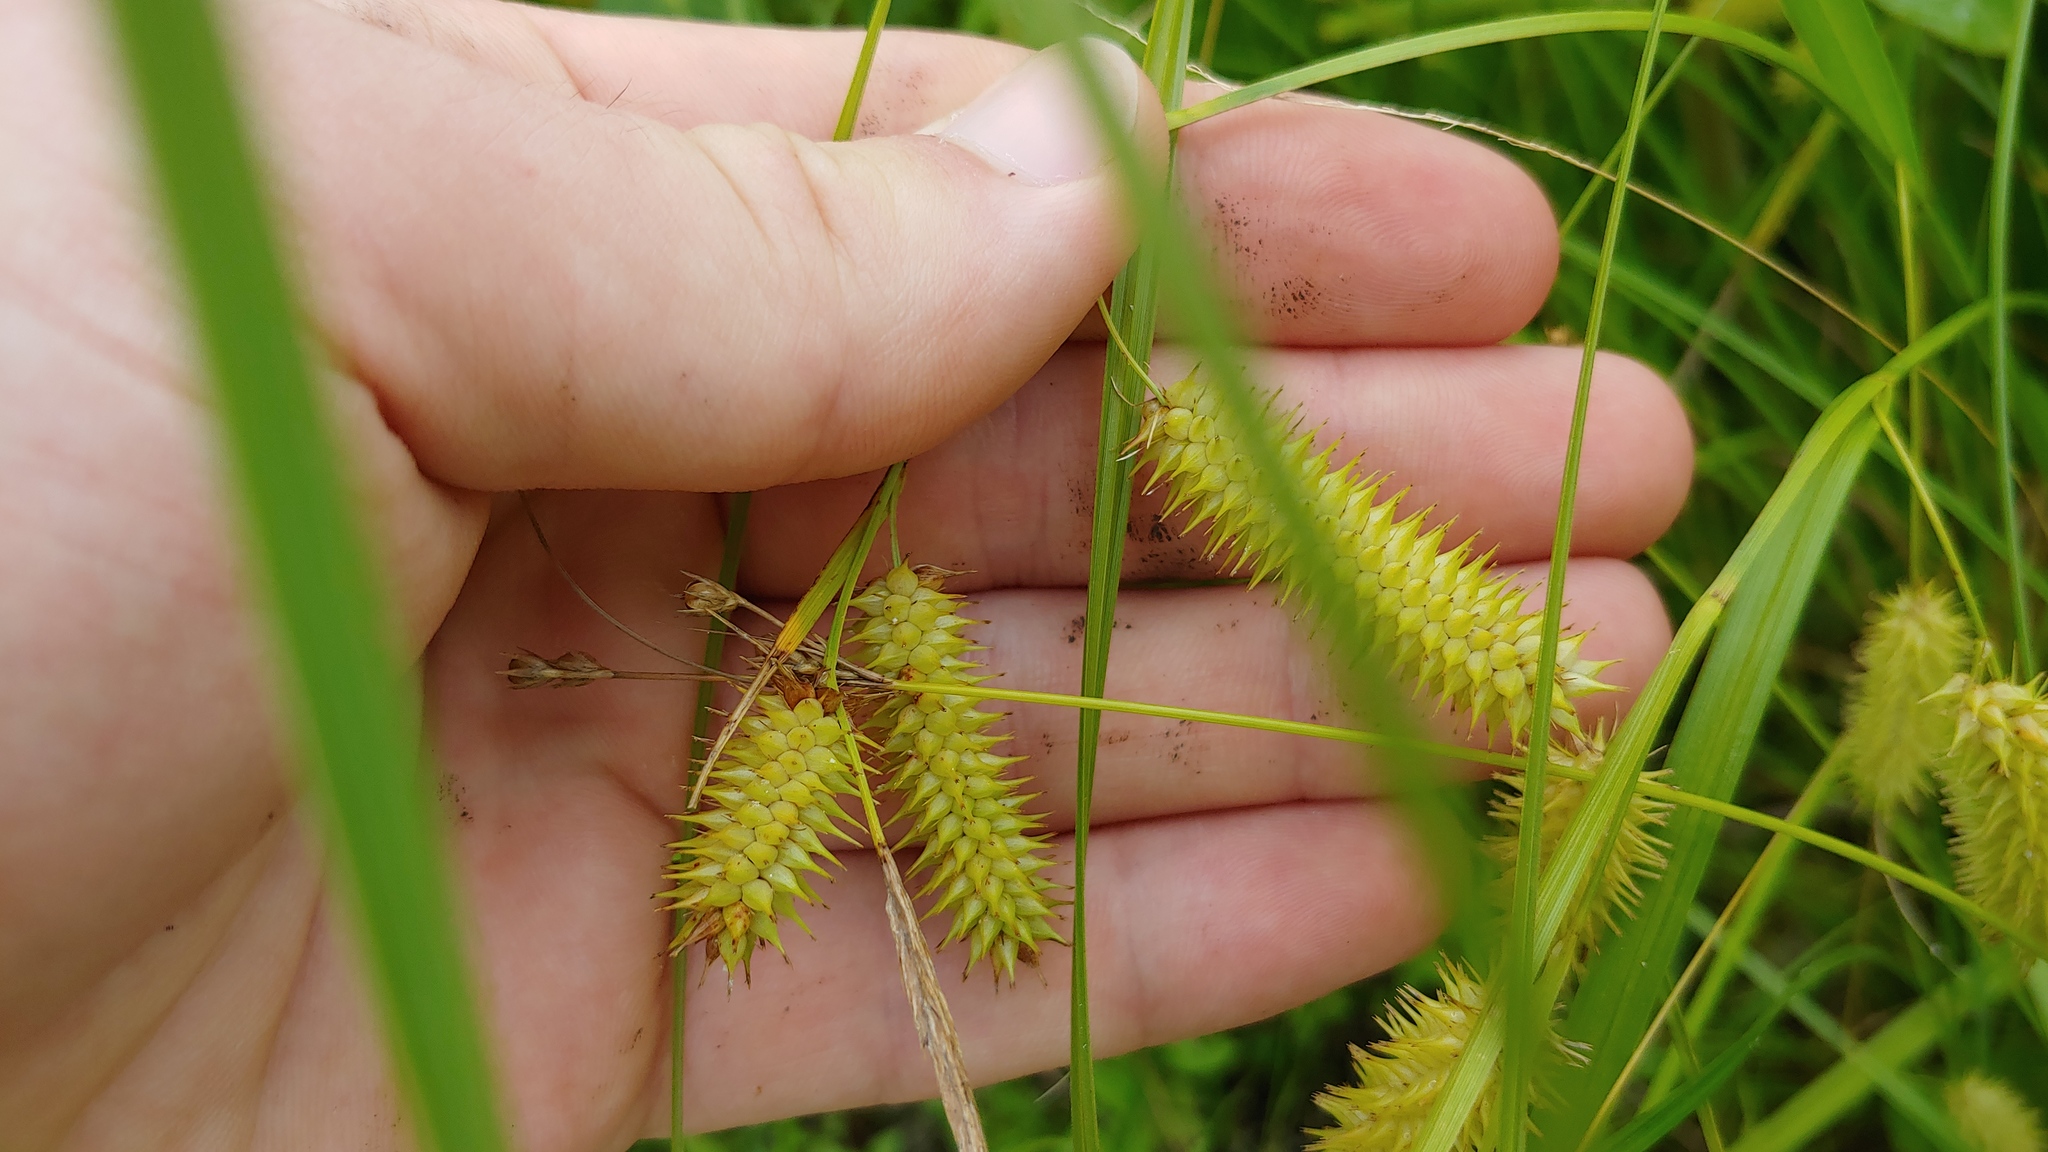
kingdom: Plantae
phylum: Tracheophyta
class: Liliopsida
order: Poales
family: Cyperaceae
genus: Carex
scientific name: Carex hystericina
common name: Bottlebrush sedge
